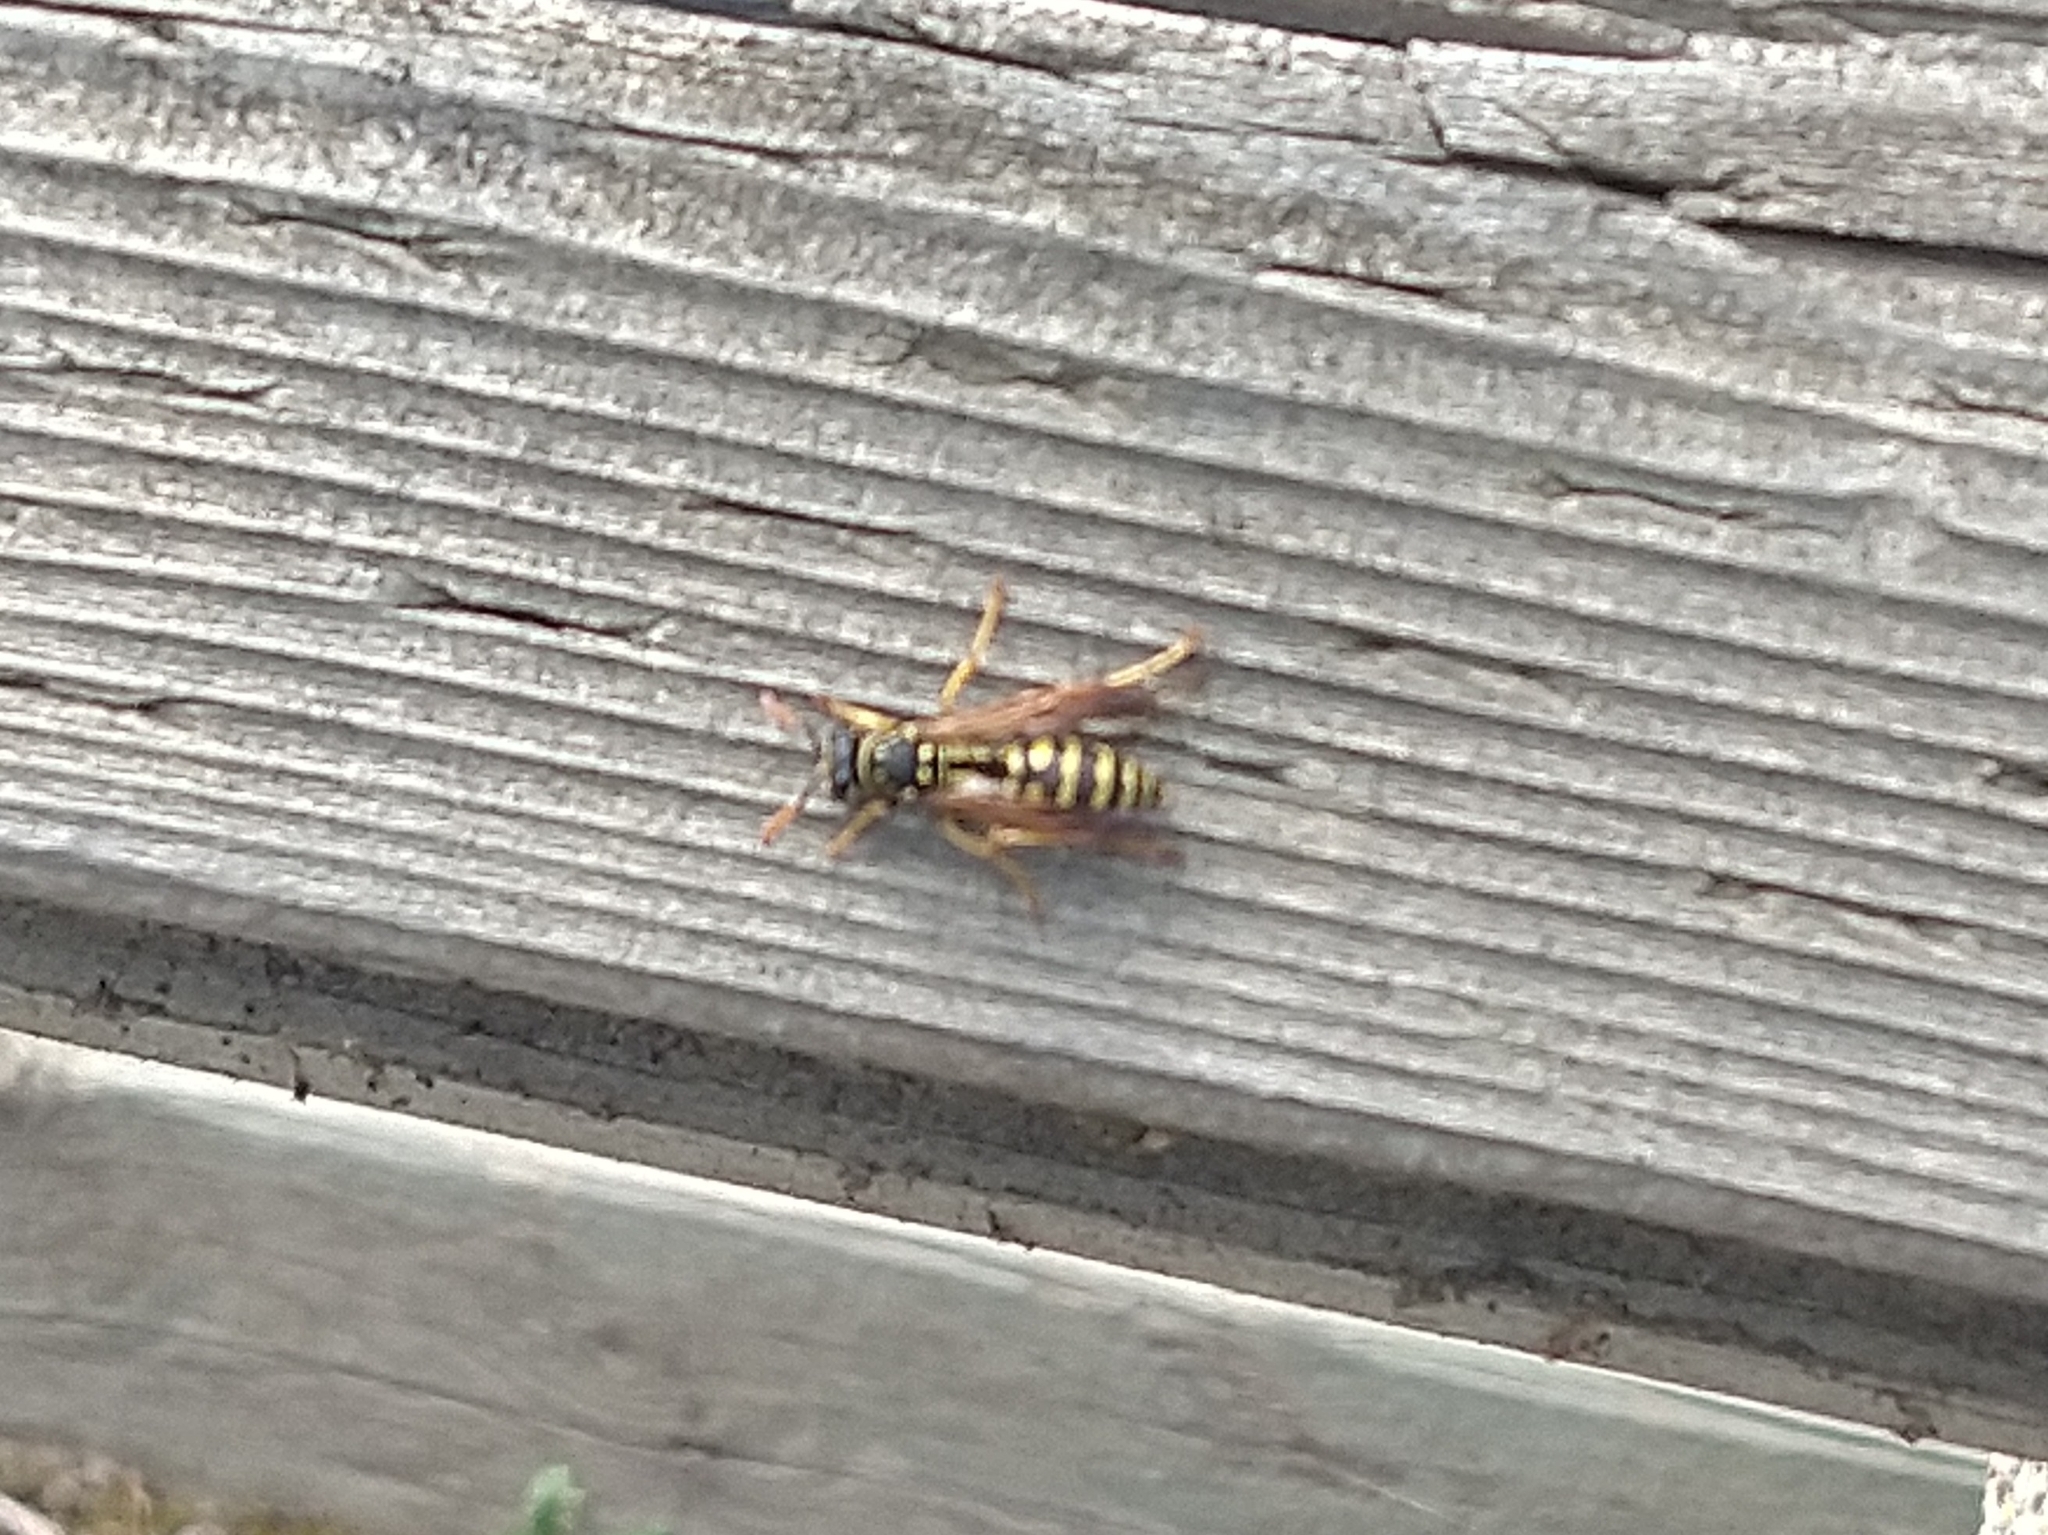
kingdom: Animalia
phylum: Arthropoda
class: Insecta
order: Hymenoptera
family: Eumenidae
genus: Polistes
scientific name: Polistes dominula
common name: Paper wasp
